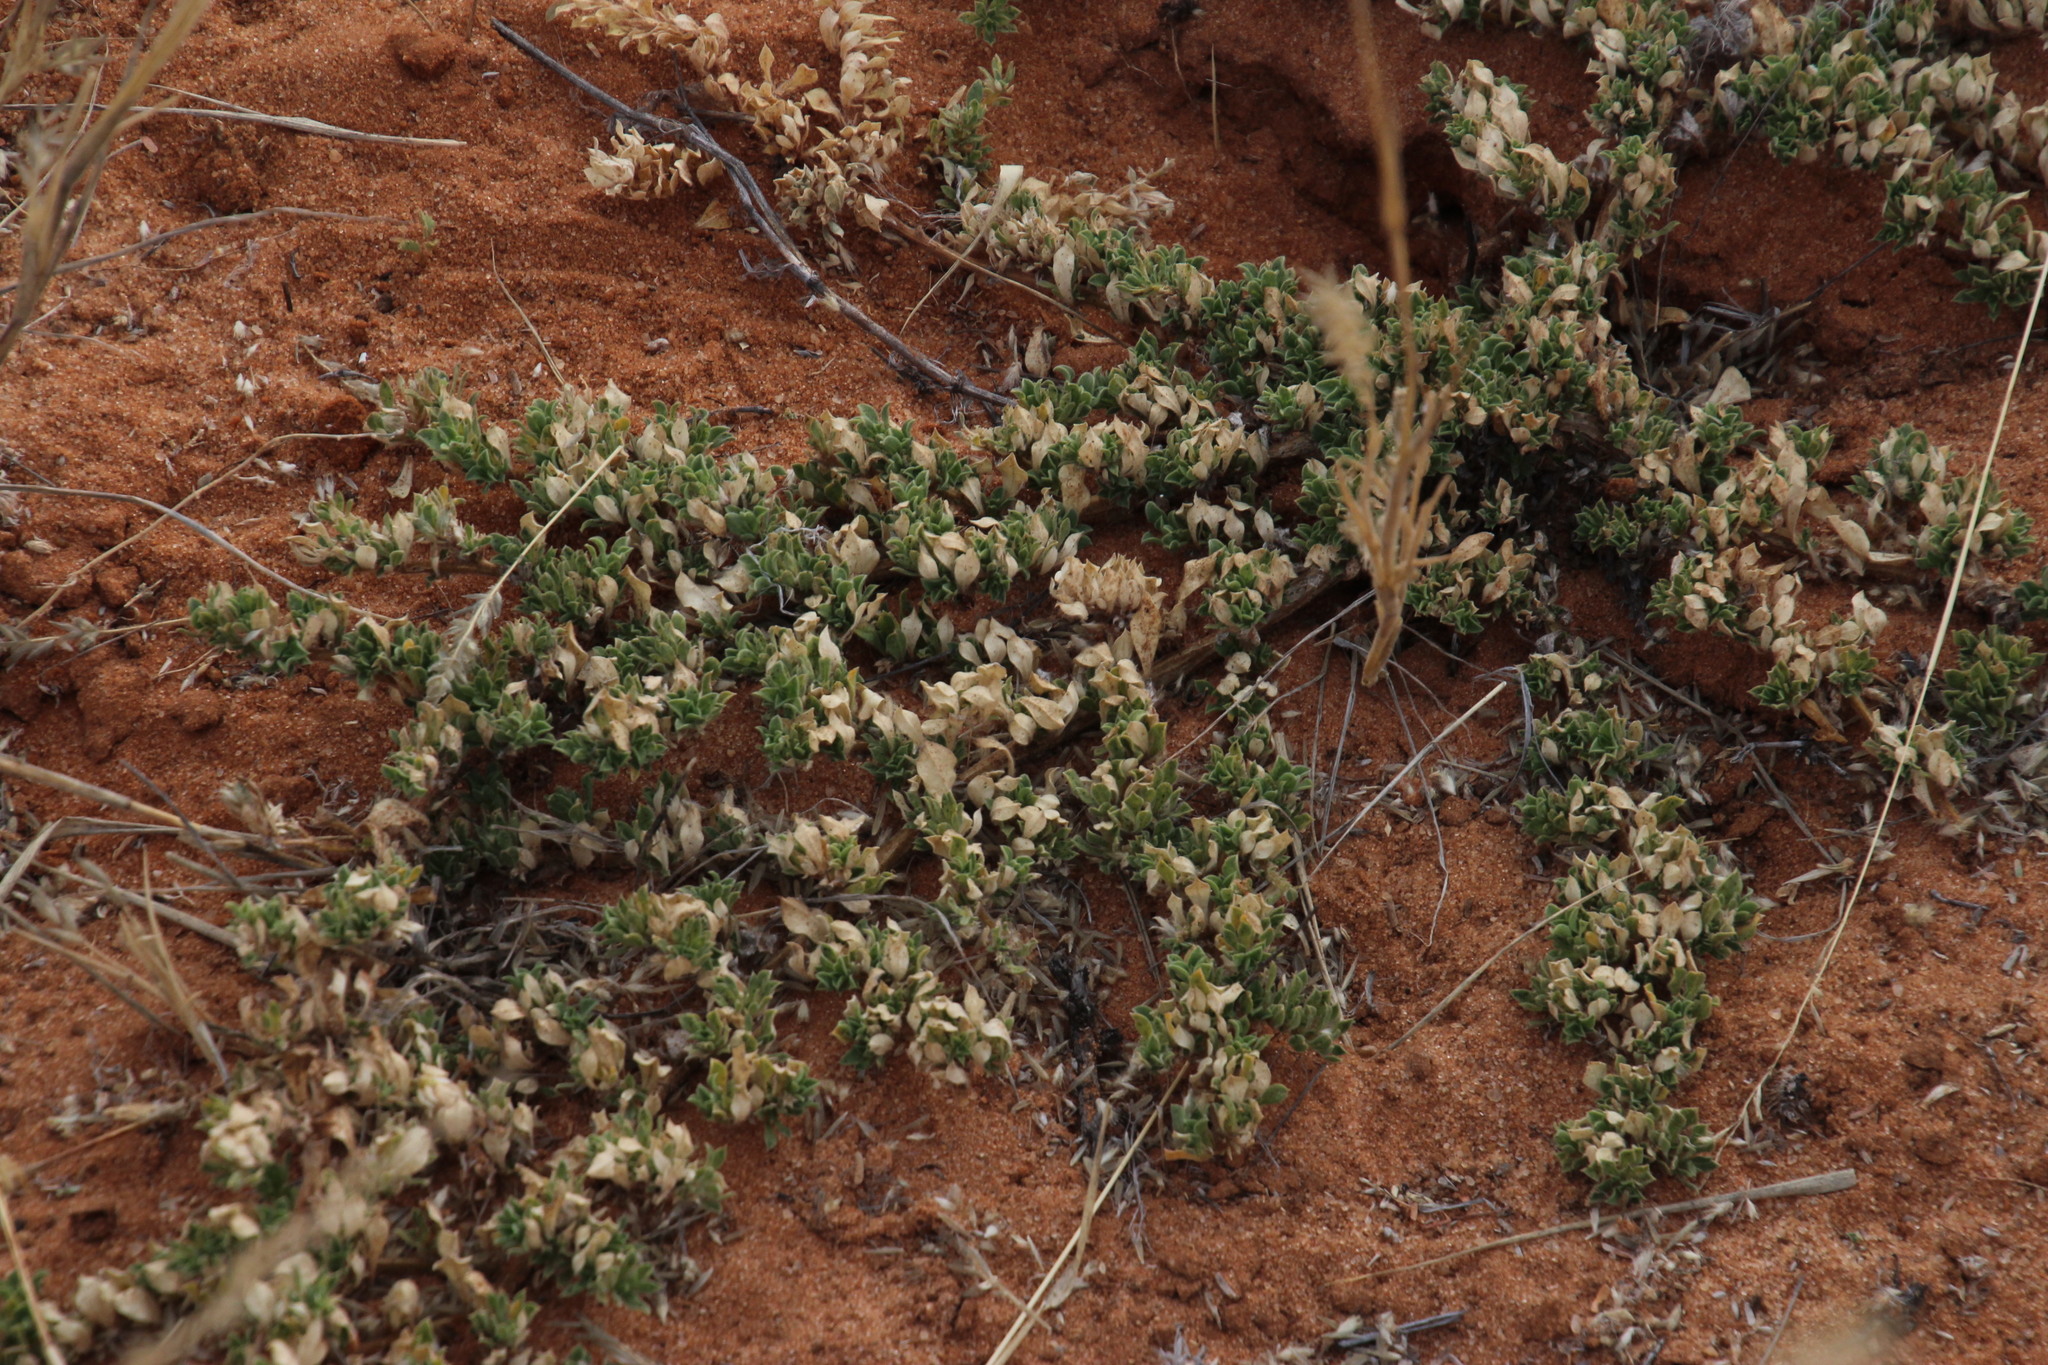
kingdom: Plantae
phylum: Tracheophyta
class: Magnoliopsida
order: Lamiales
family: Scrophulariaceae
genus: Aptosimum
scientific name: Aptosimum elongatum
